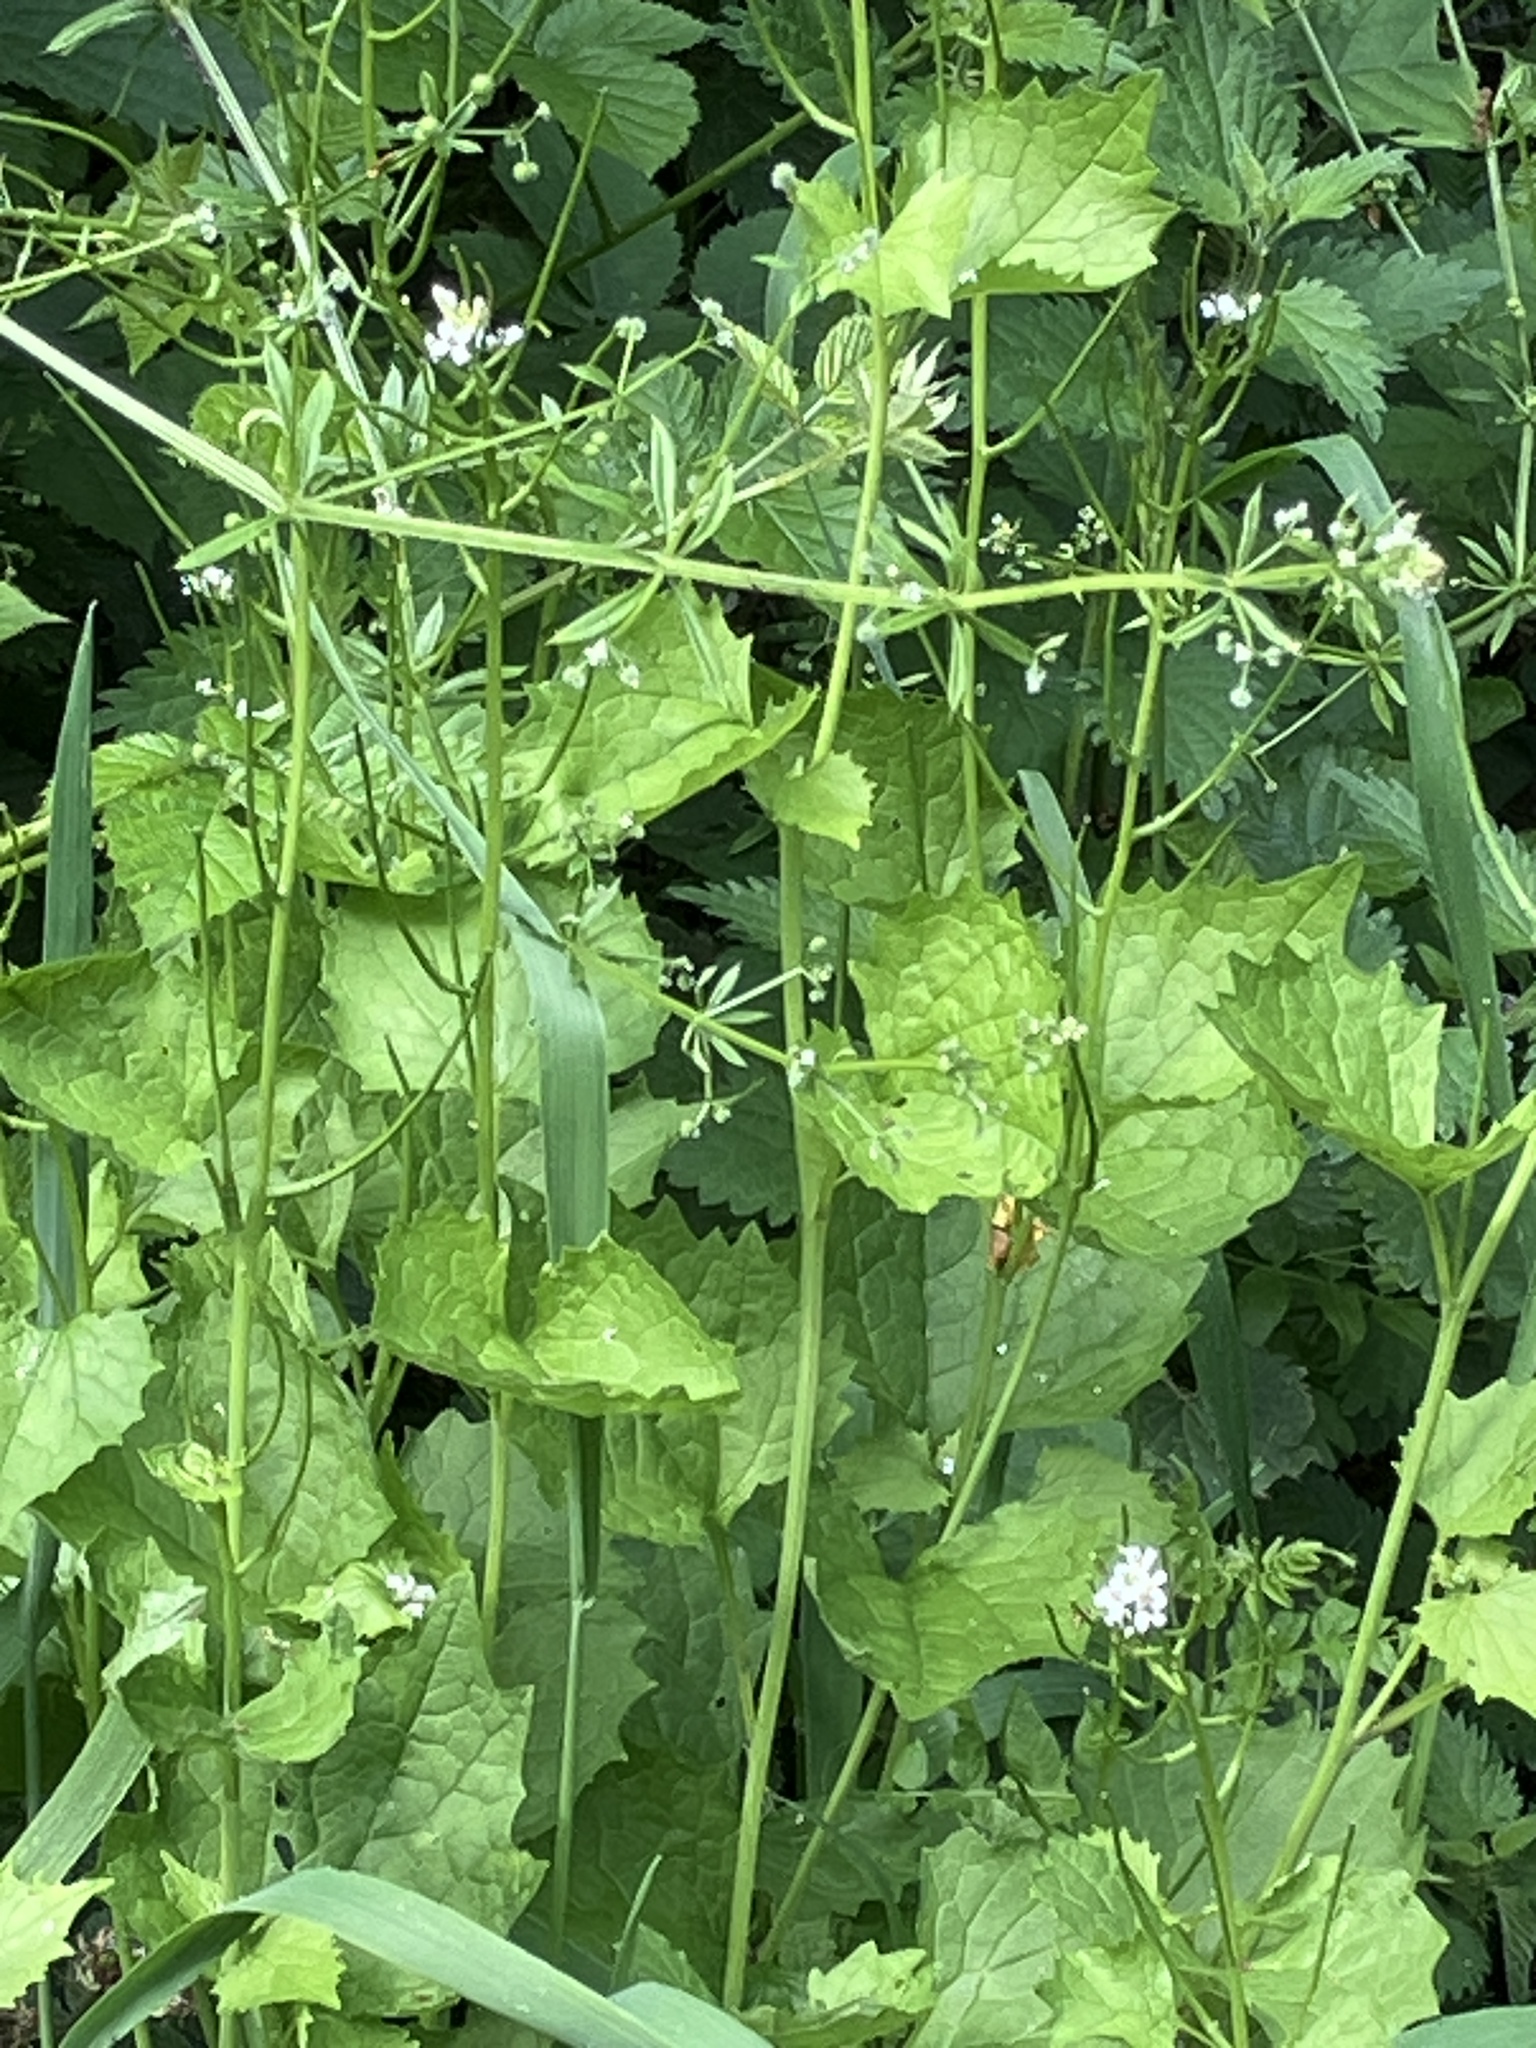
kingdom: Plantae
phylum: Tracheophyta
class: Magnoliopsida
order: Brassicales
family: Brassicaceae
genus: Alliaria
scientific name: Alliaria petiolata
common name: Garlic mustard
